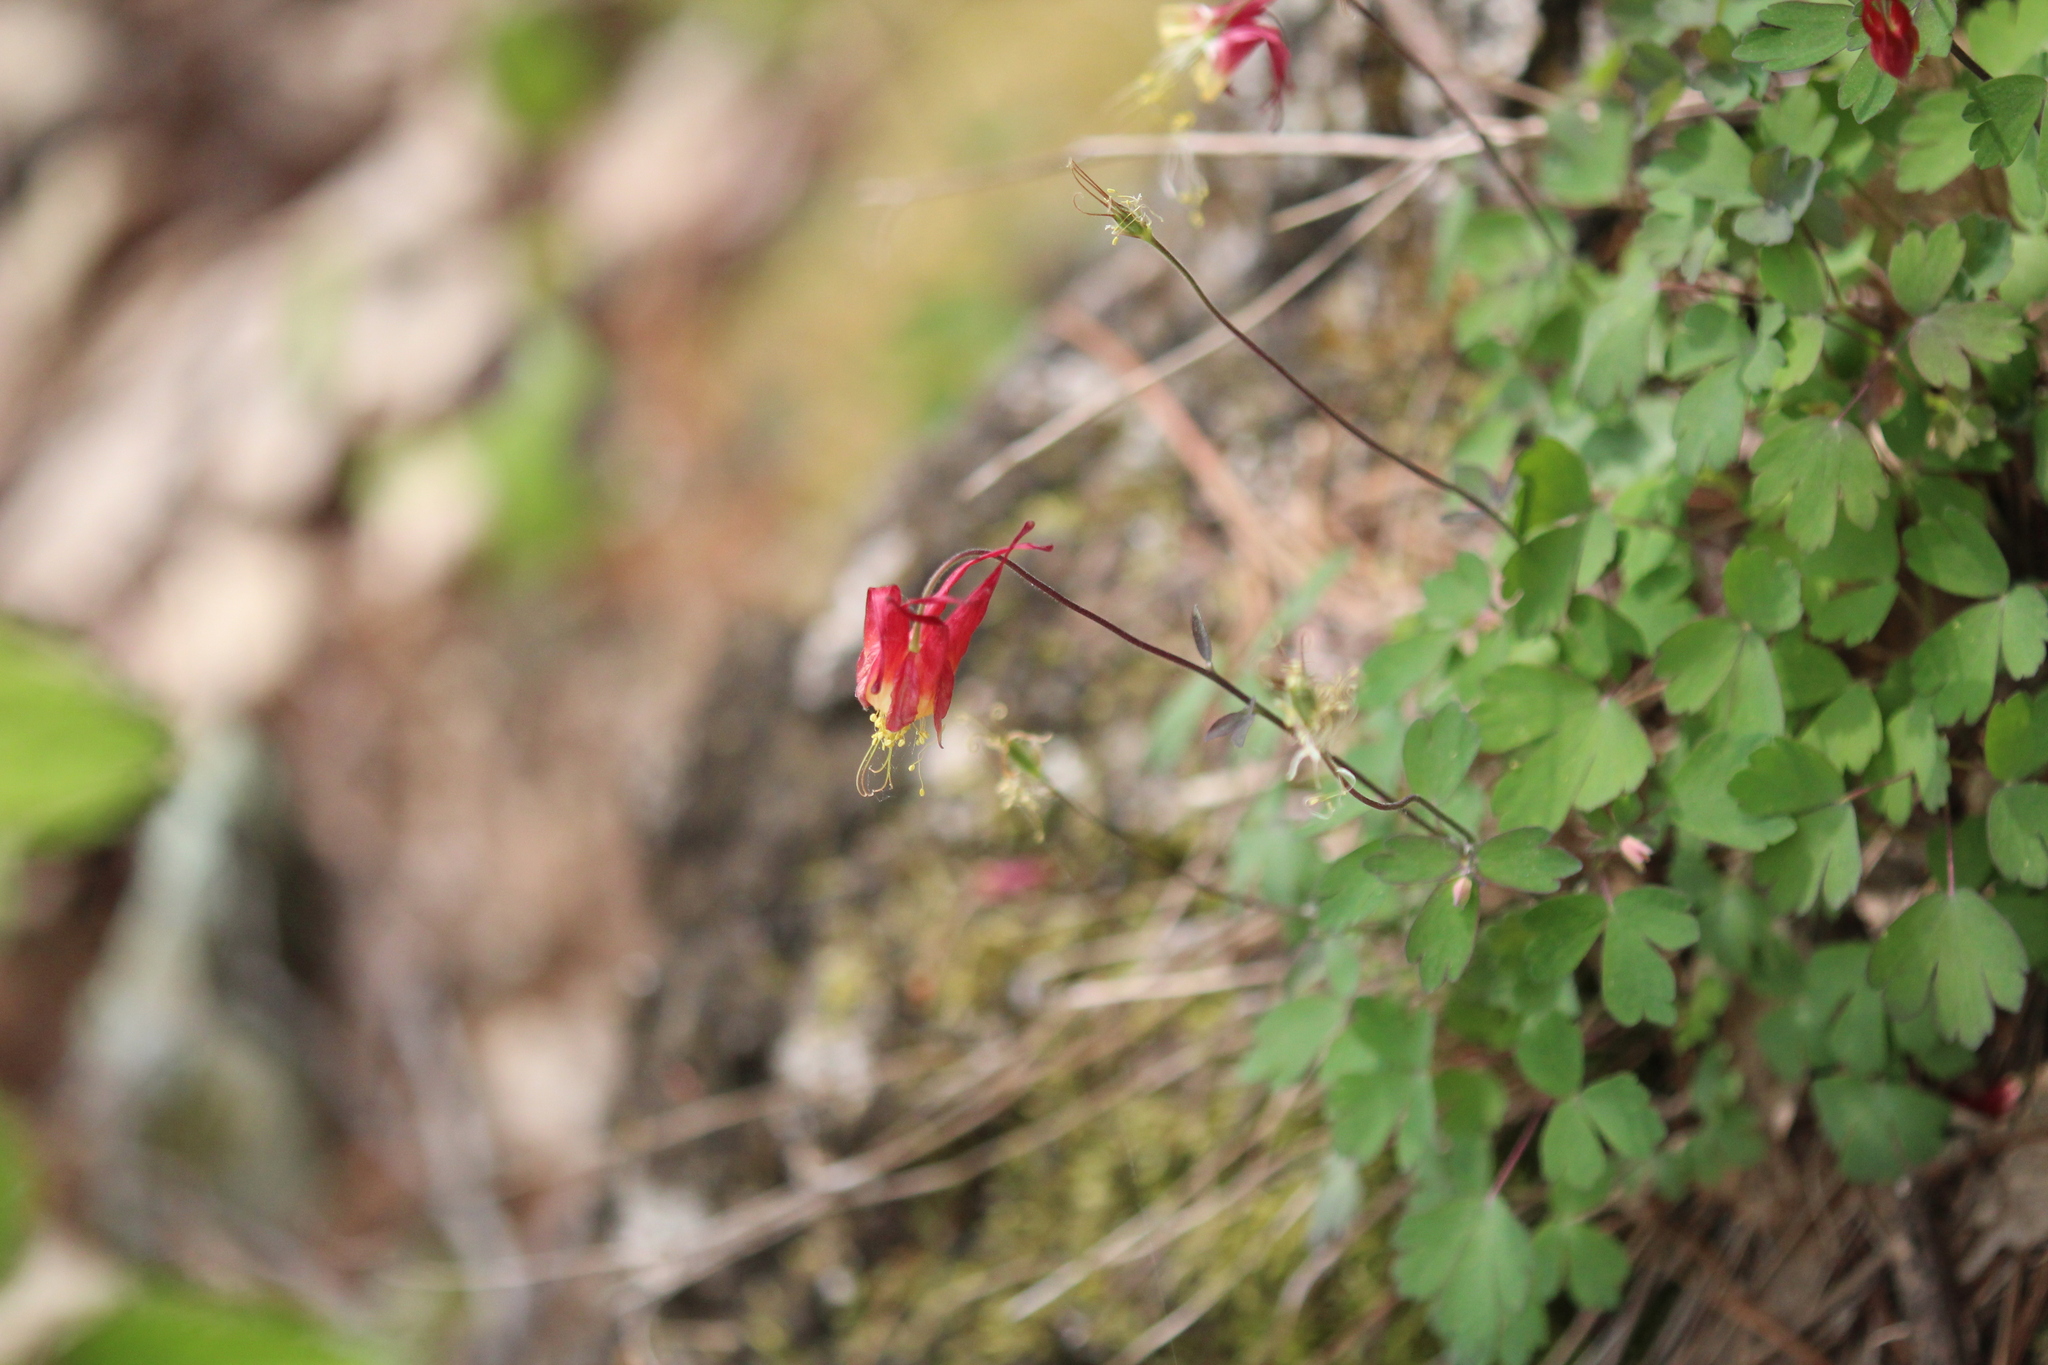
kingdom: Plantae
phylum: Tracheophyta
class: Magnoliopsida
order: Ranunculales
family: Ranunculaceae
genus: Aquilegia
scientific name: Aquilegia canadensis
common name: American columbine
